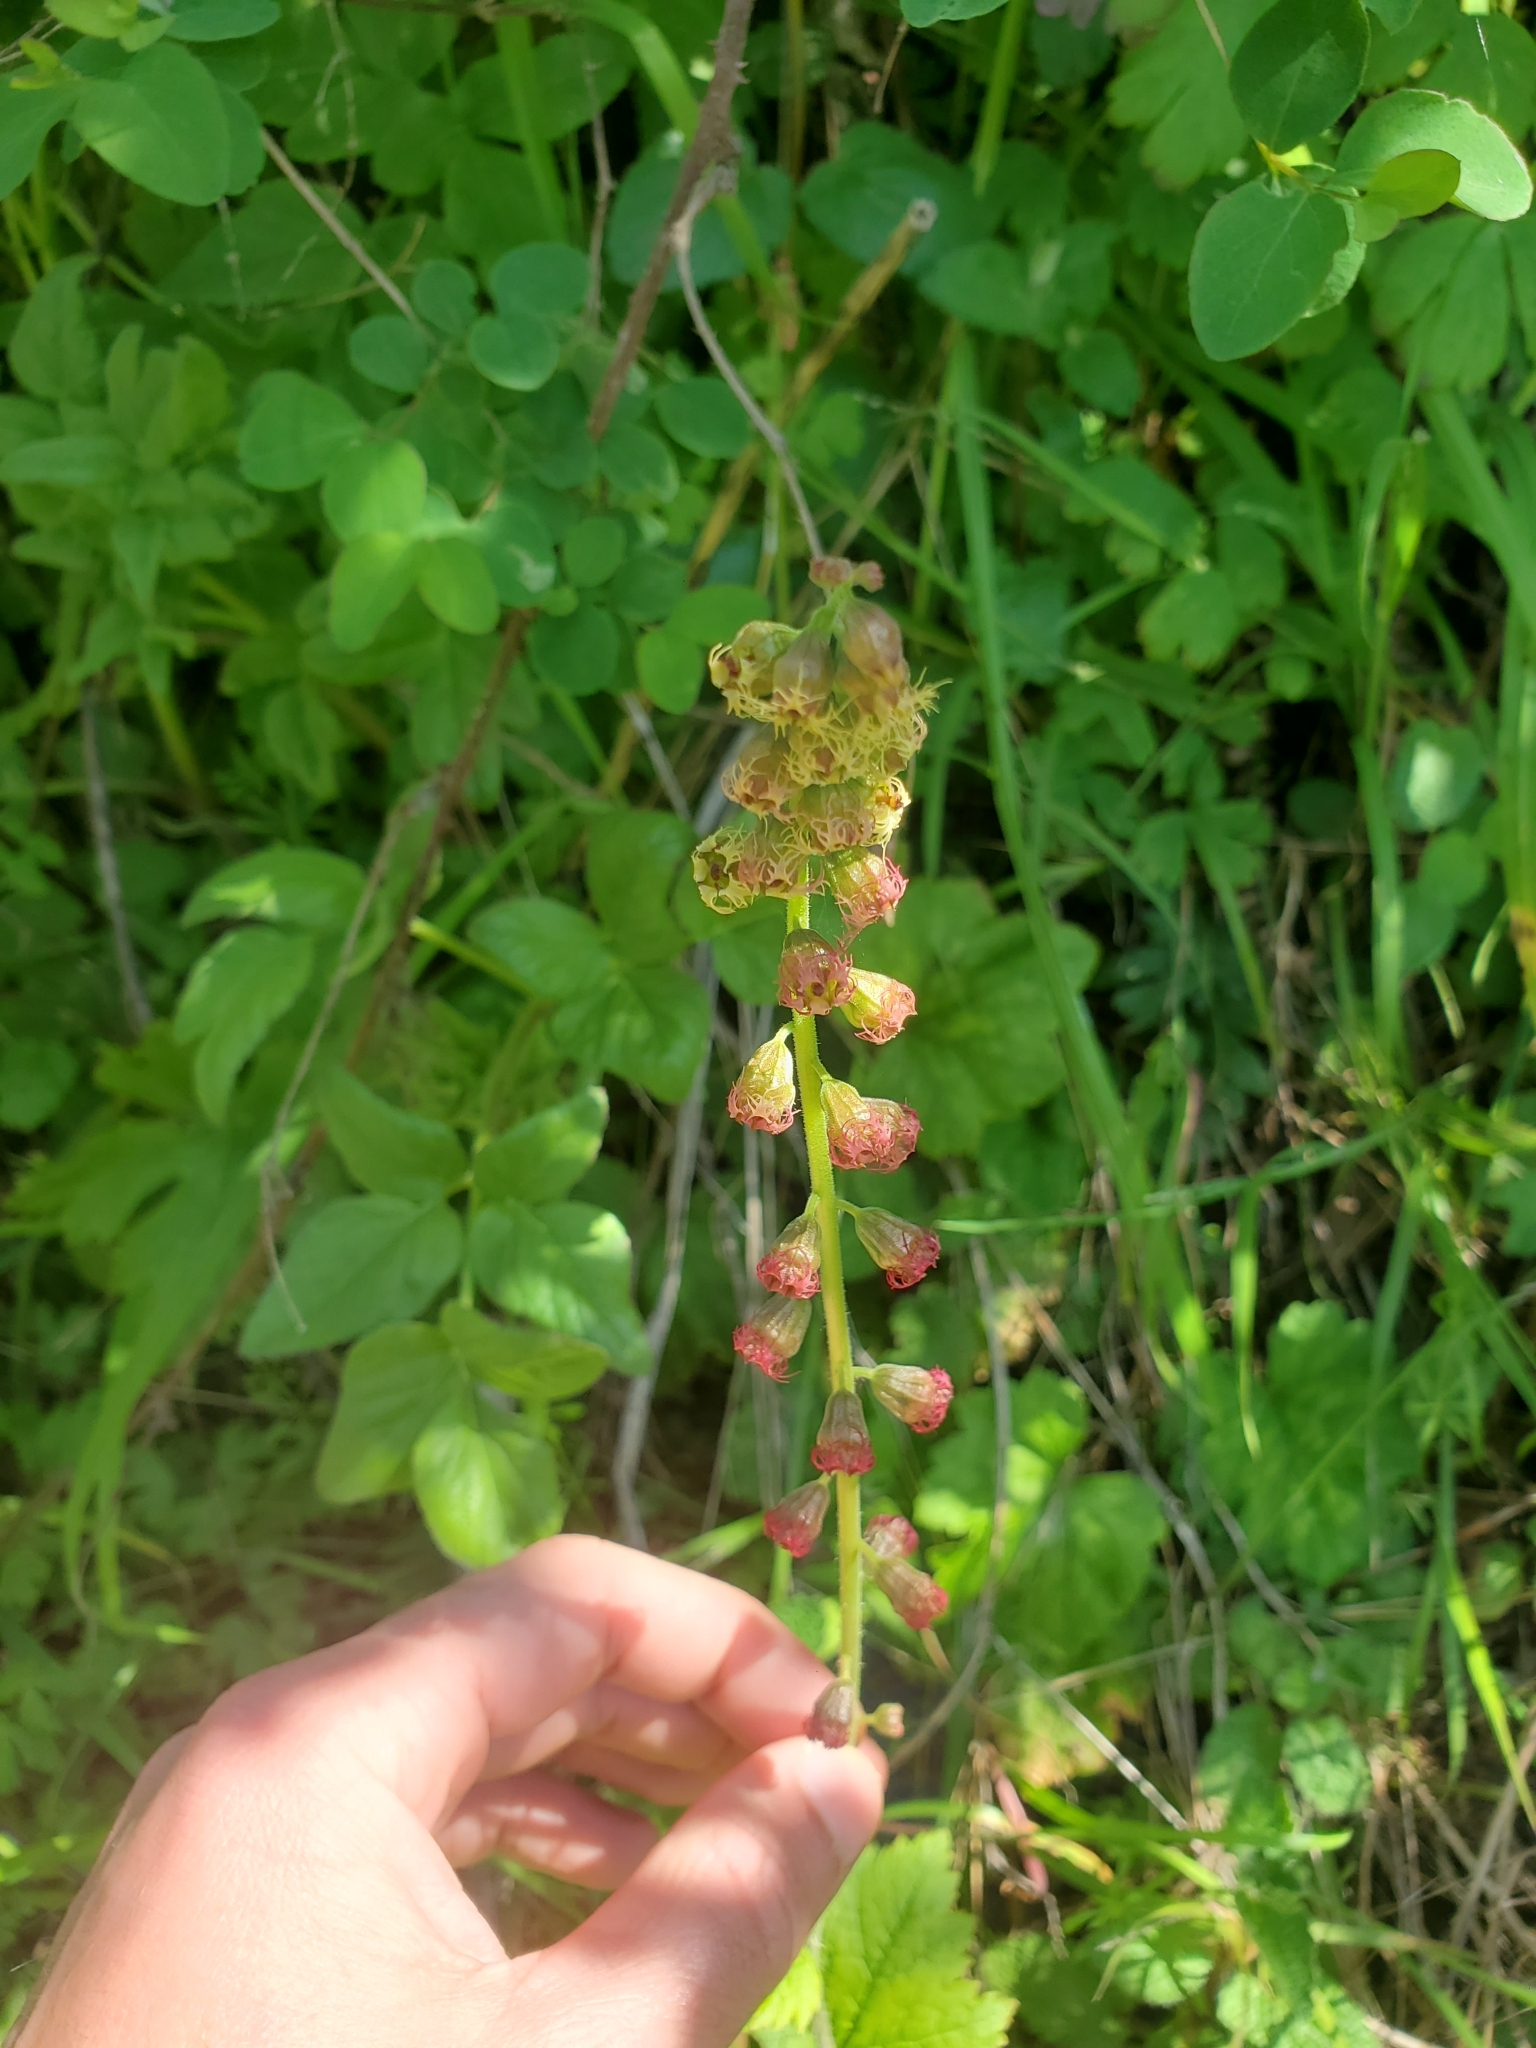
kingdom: Plantae
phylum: Tracheophyta
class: Magnoliopsida
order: Saxifragales
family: Saxifragaceae
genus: Tellima
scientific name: Tellima grandiflora
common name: Fringecups
